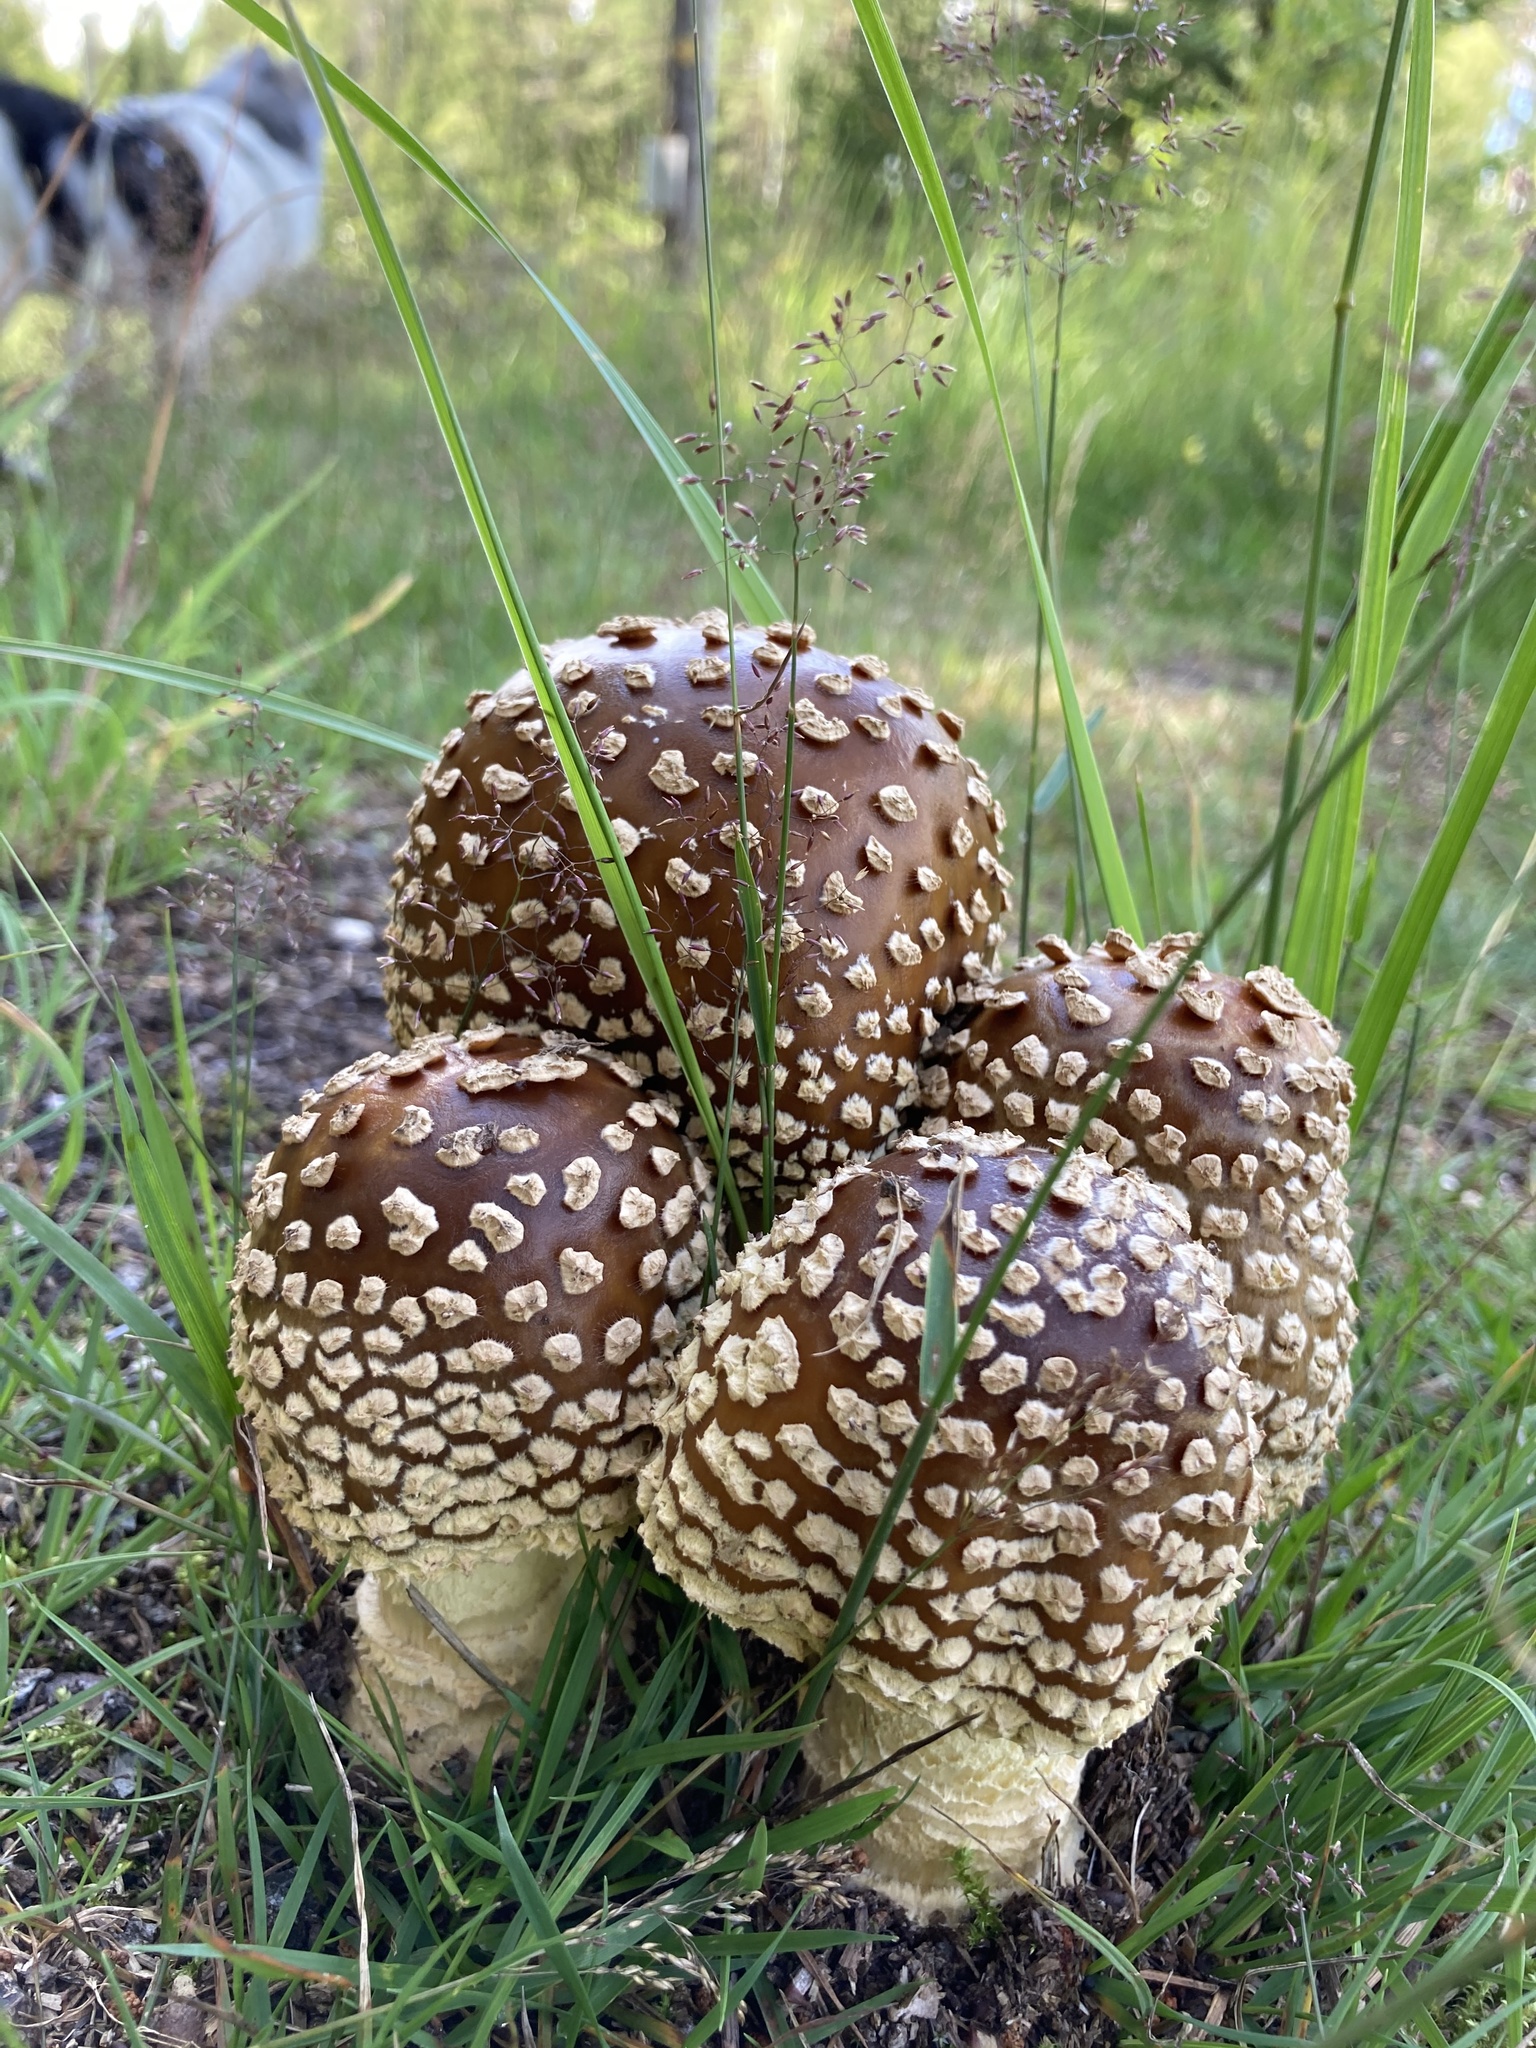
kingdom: Fungi
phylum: Basidiomycota
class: Agaricomycetes
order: Agaricales
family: Amanitaceae
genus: Amanita
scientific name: Amanita regalis
